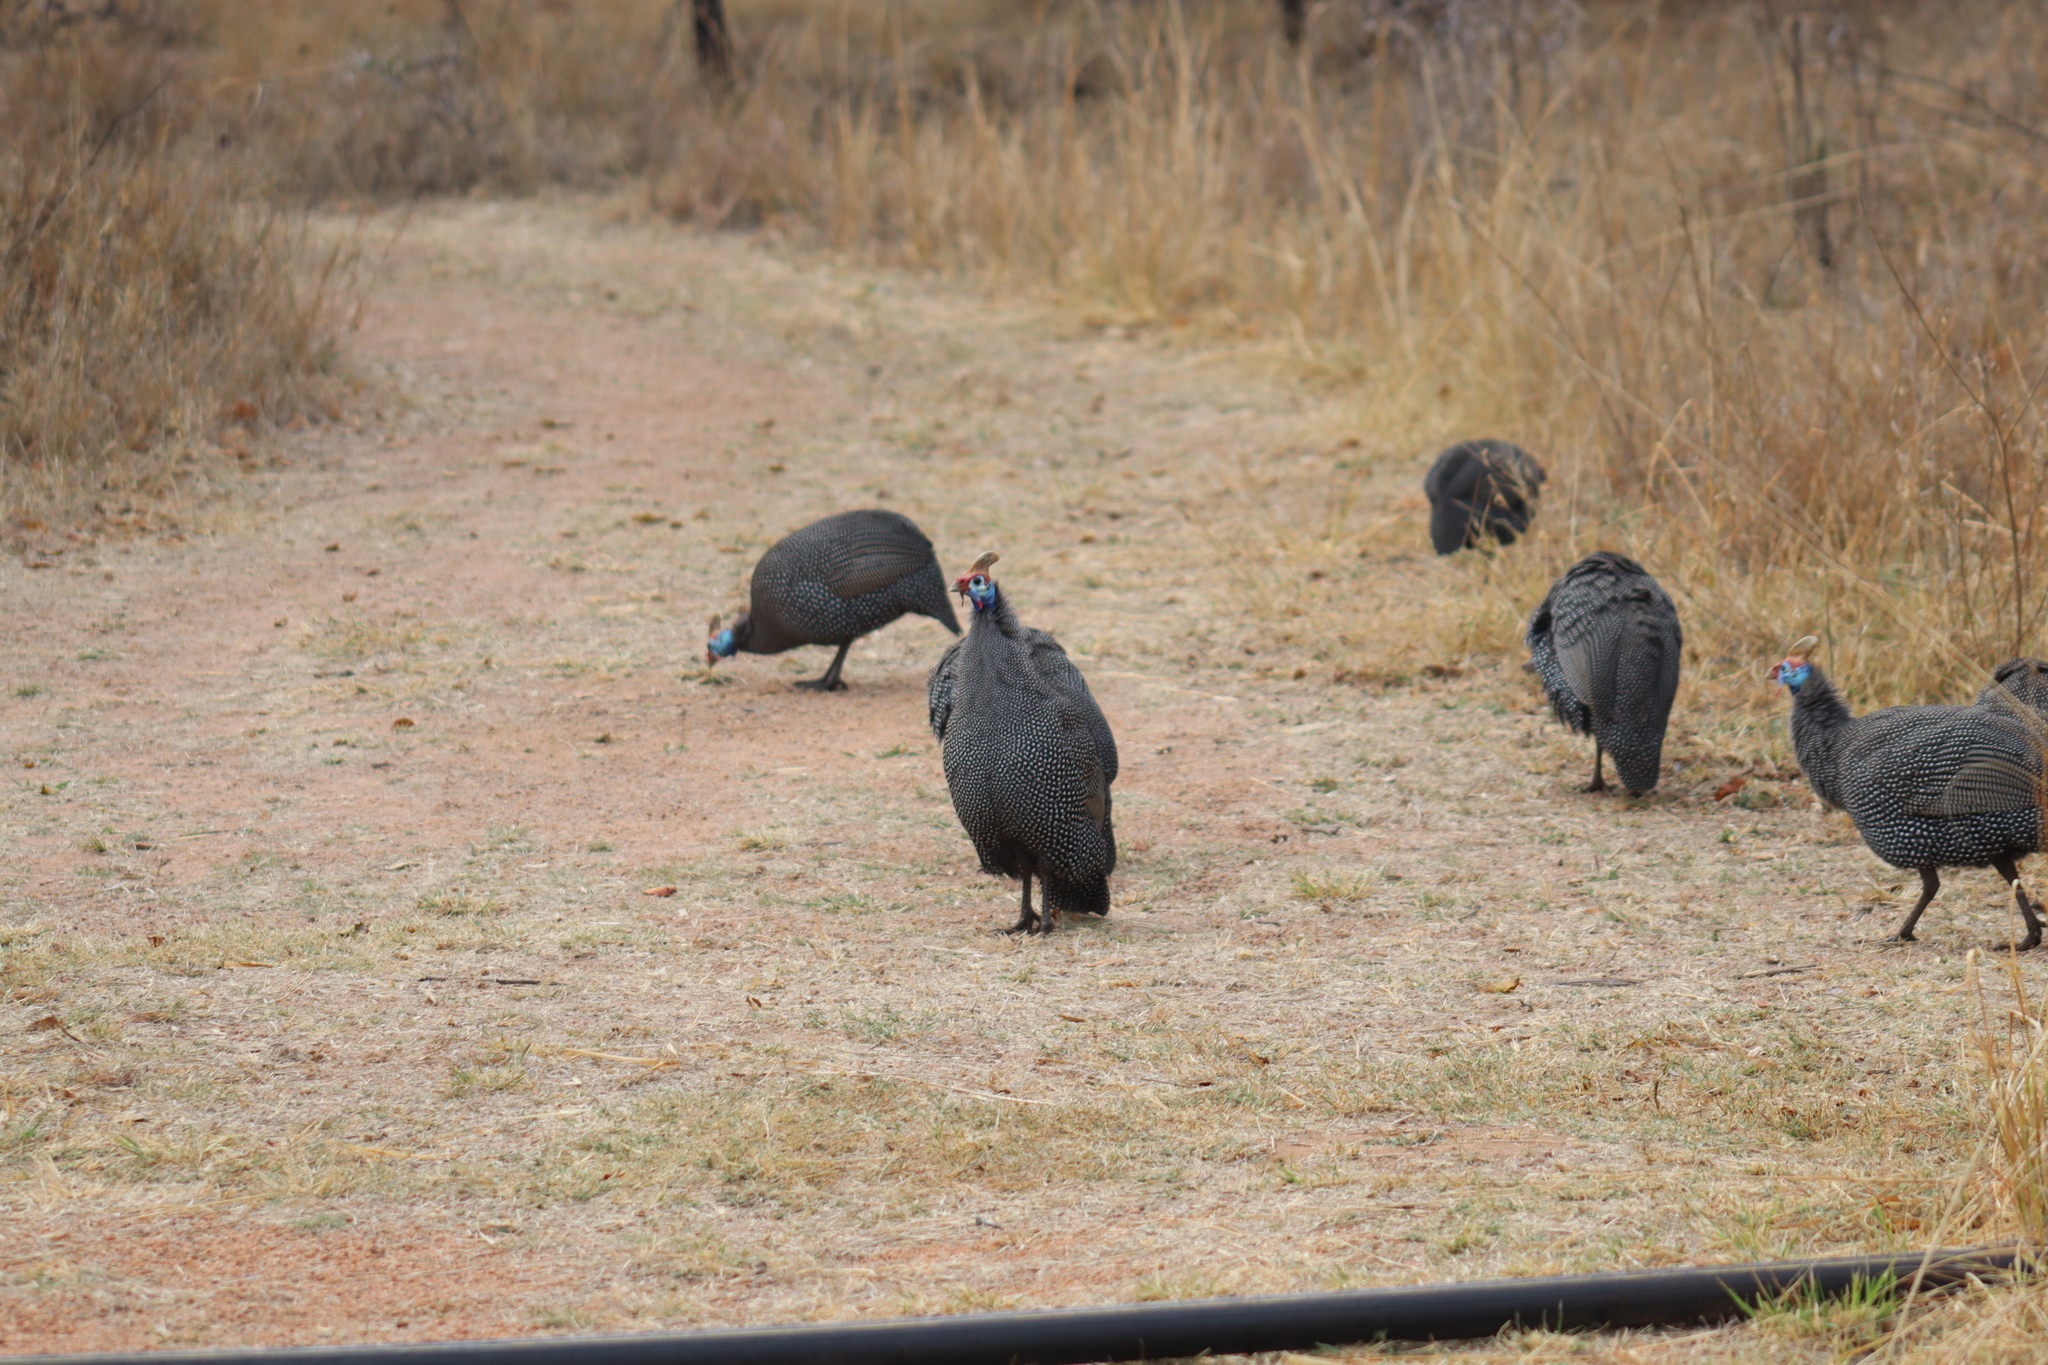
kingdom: Animalia
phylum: Chordata
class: Aves
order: Galliformes
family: Numididae
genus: Numida
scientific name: Numida meleagris
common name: Helmeted guineafowl
